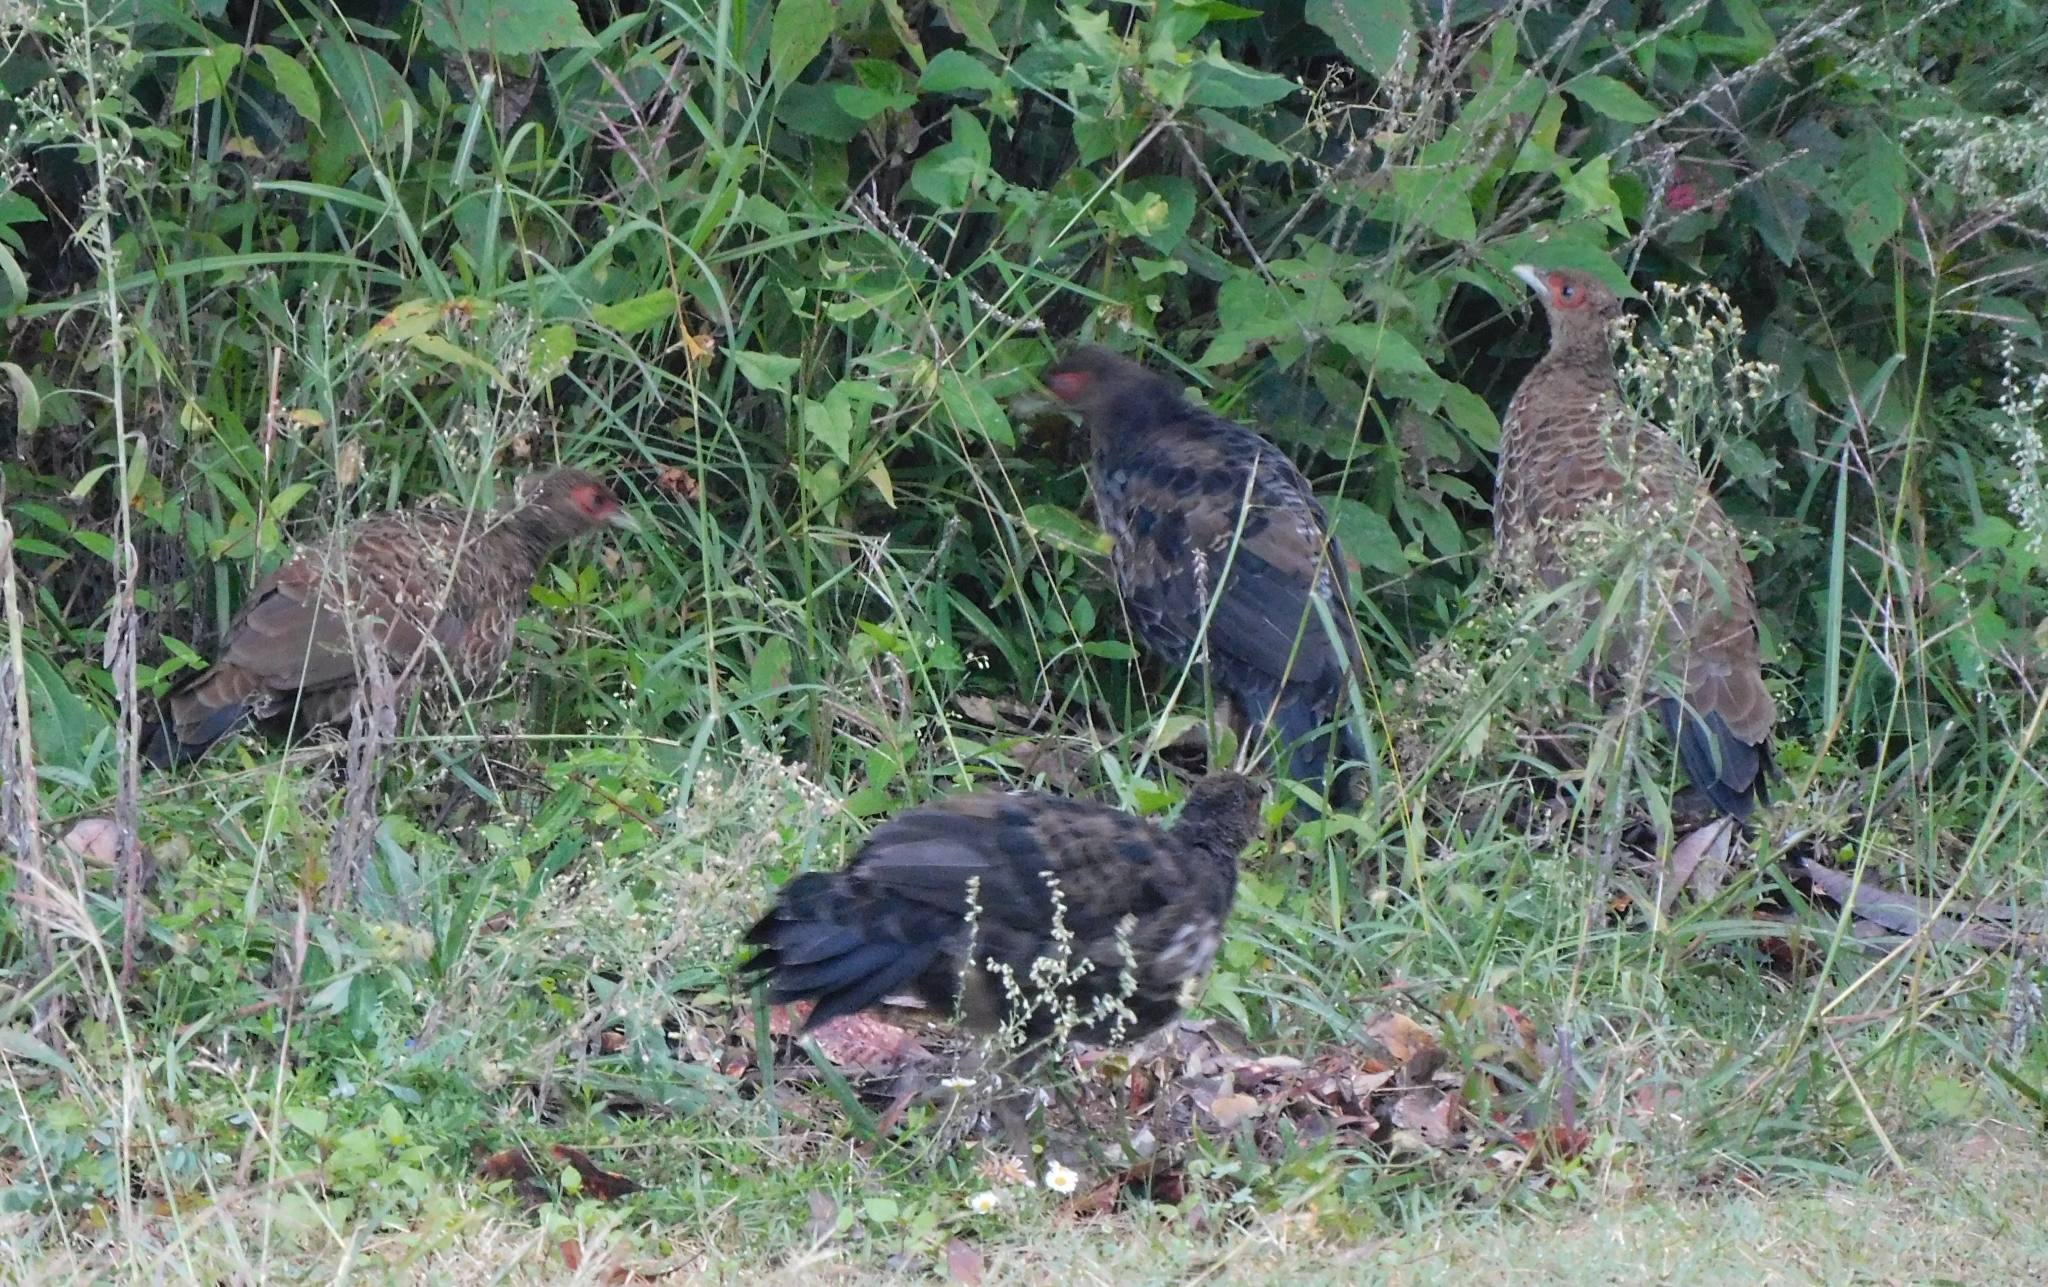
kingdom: Animalia
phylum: Chordata
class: Aves
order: Galliformes
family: Phasianidae
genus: Phasianus
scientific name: Phasianus colchicus
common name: Common pheasant
